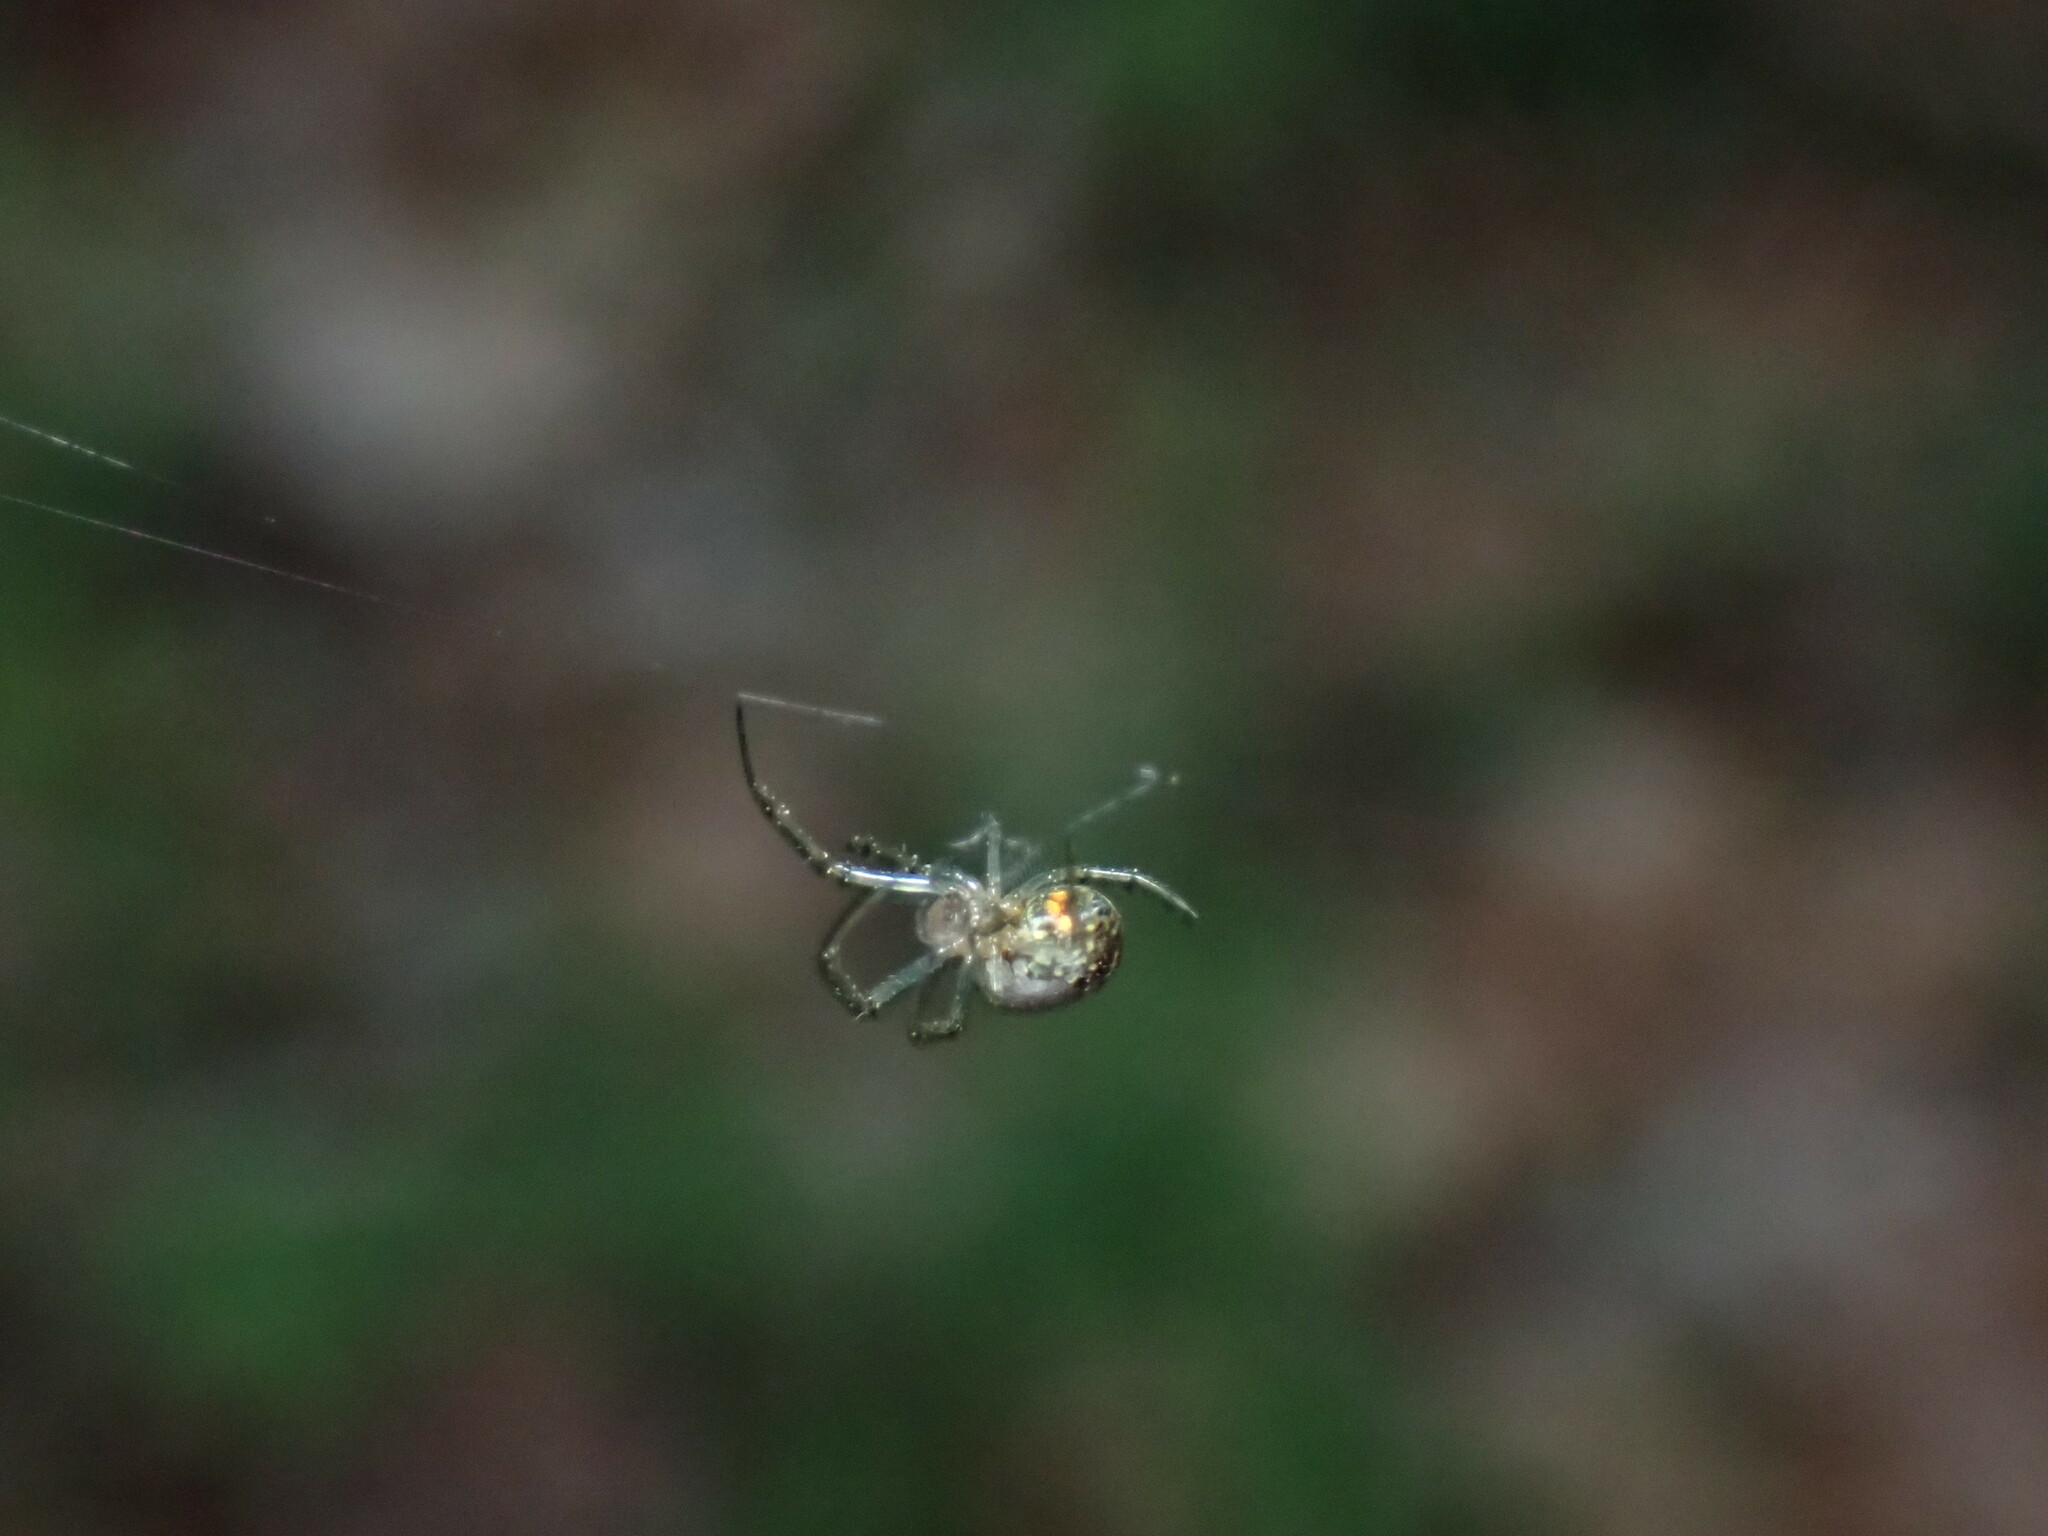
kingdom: Animalia
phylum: Arthropoda
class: Arachnida
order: Araneae
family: Tetragnathidae
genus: Leucauge
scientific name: Leucauge venusta
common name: Longjawed orb weavers
